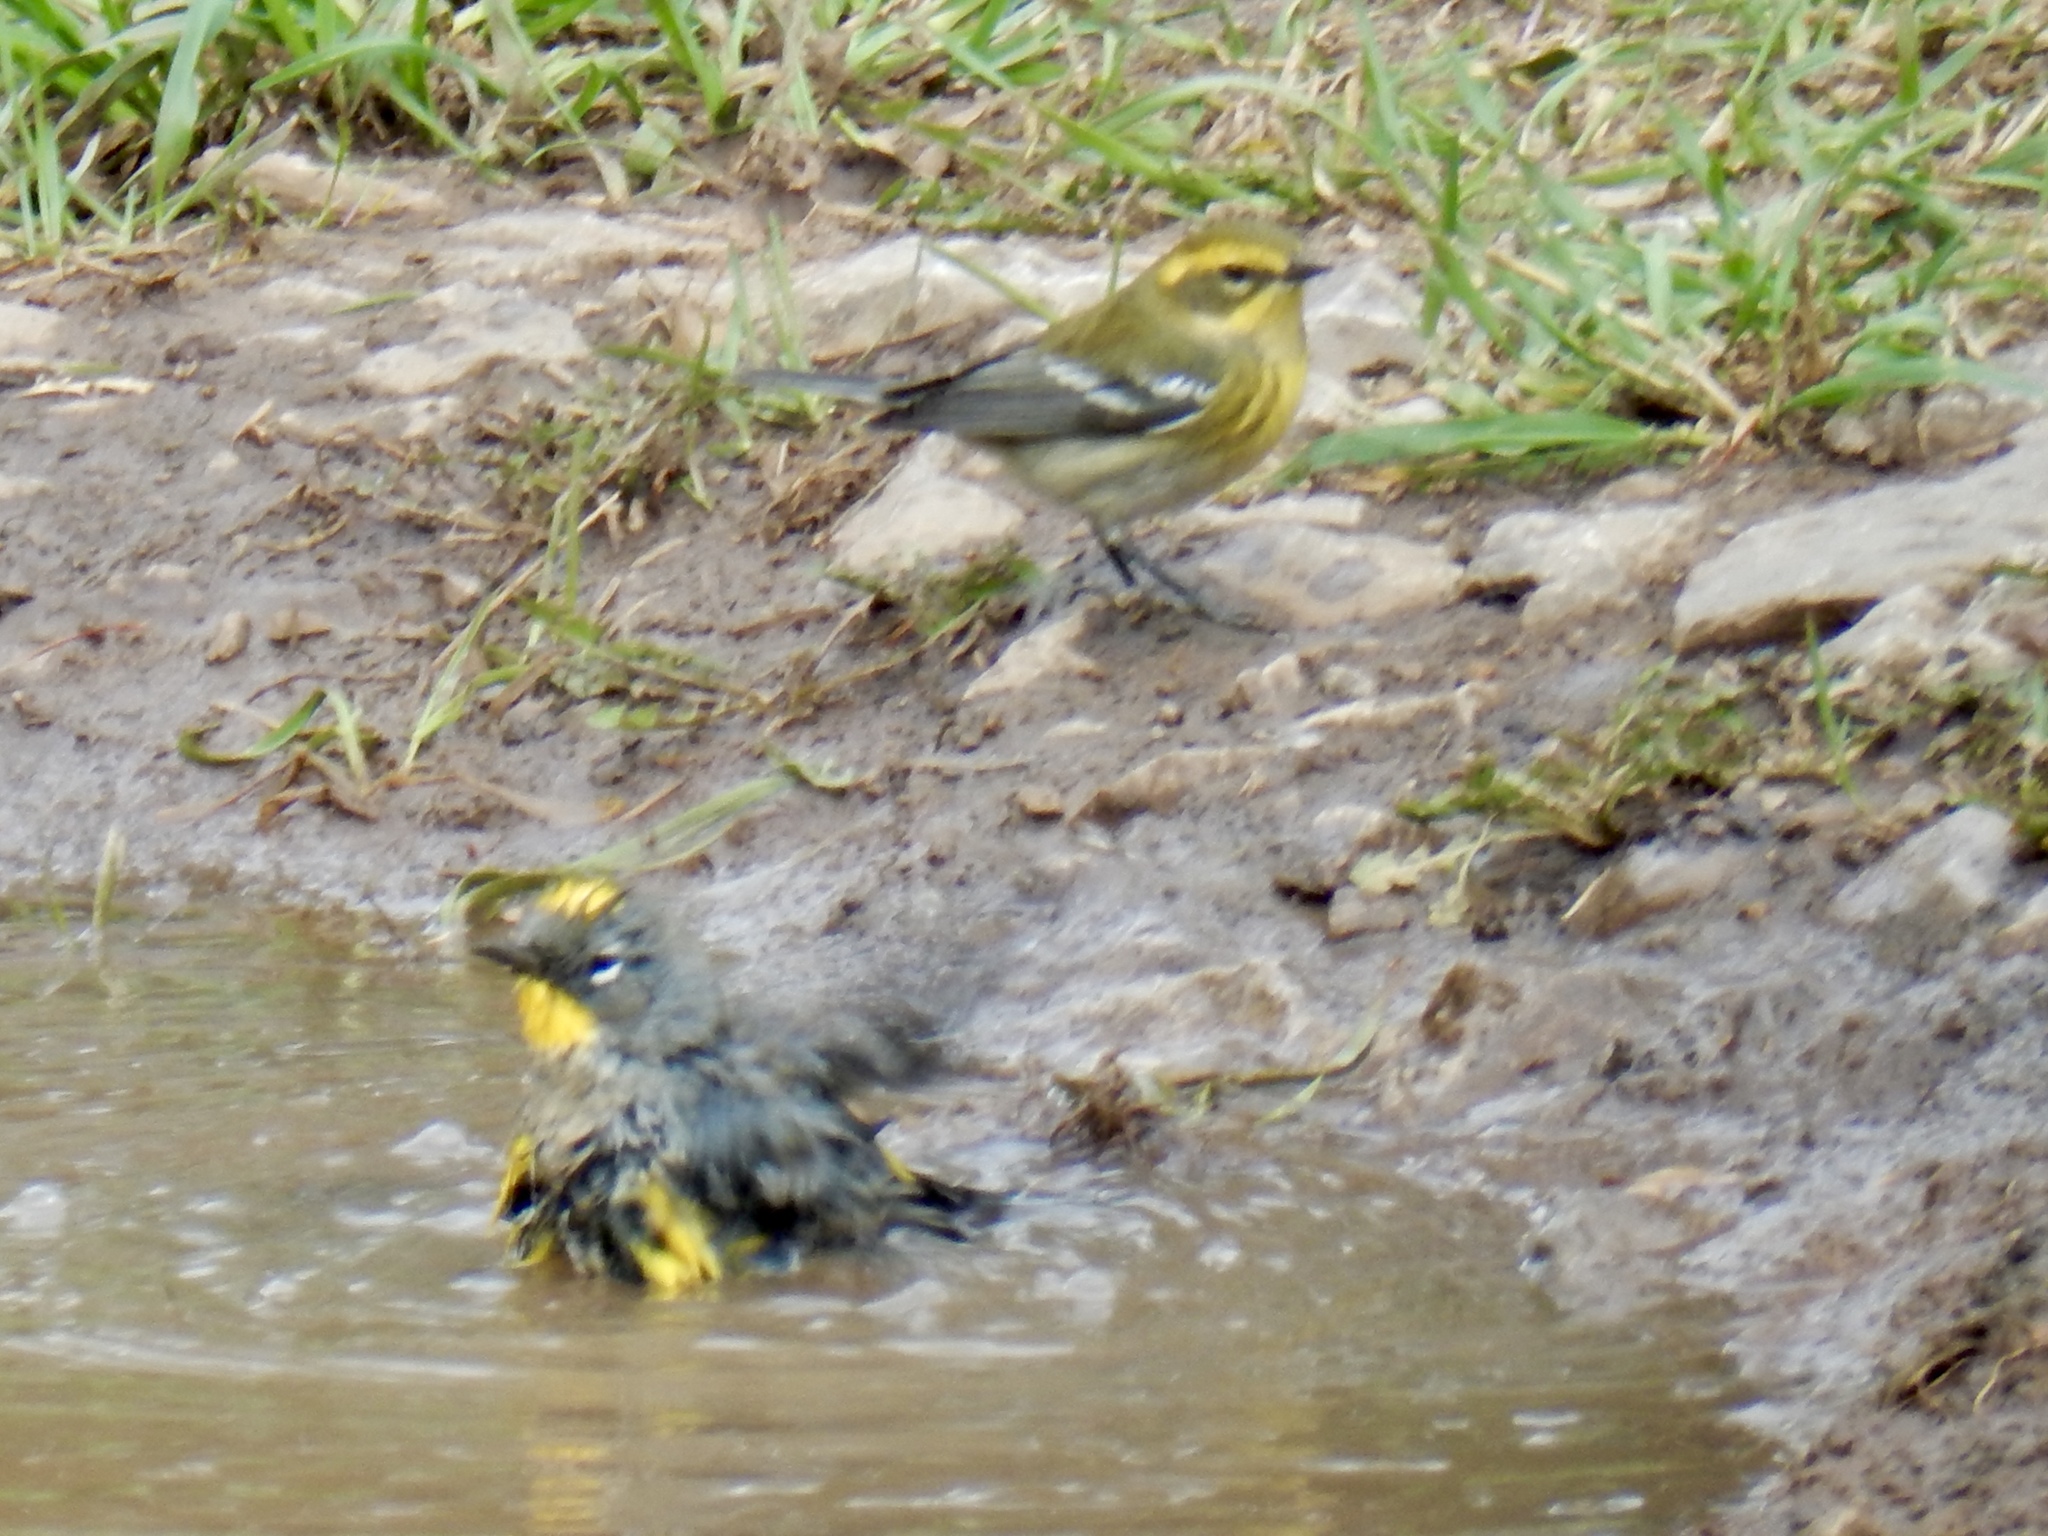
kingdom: Animalia
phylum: Chordata
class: Aves
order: Passeriformes
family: Parulidae
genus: Setophaga
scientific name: Setophaga auduboni
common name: Audubon's warbler
